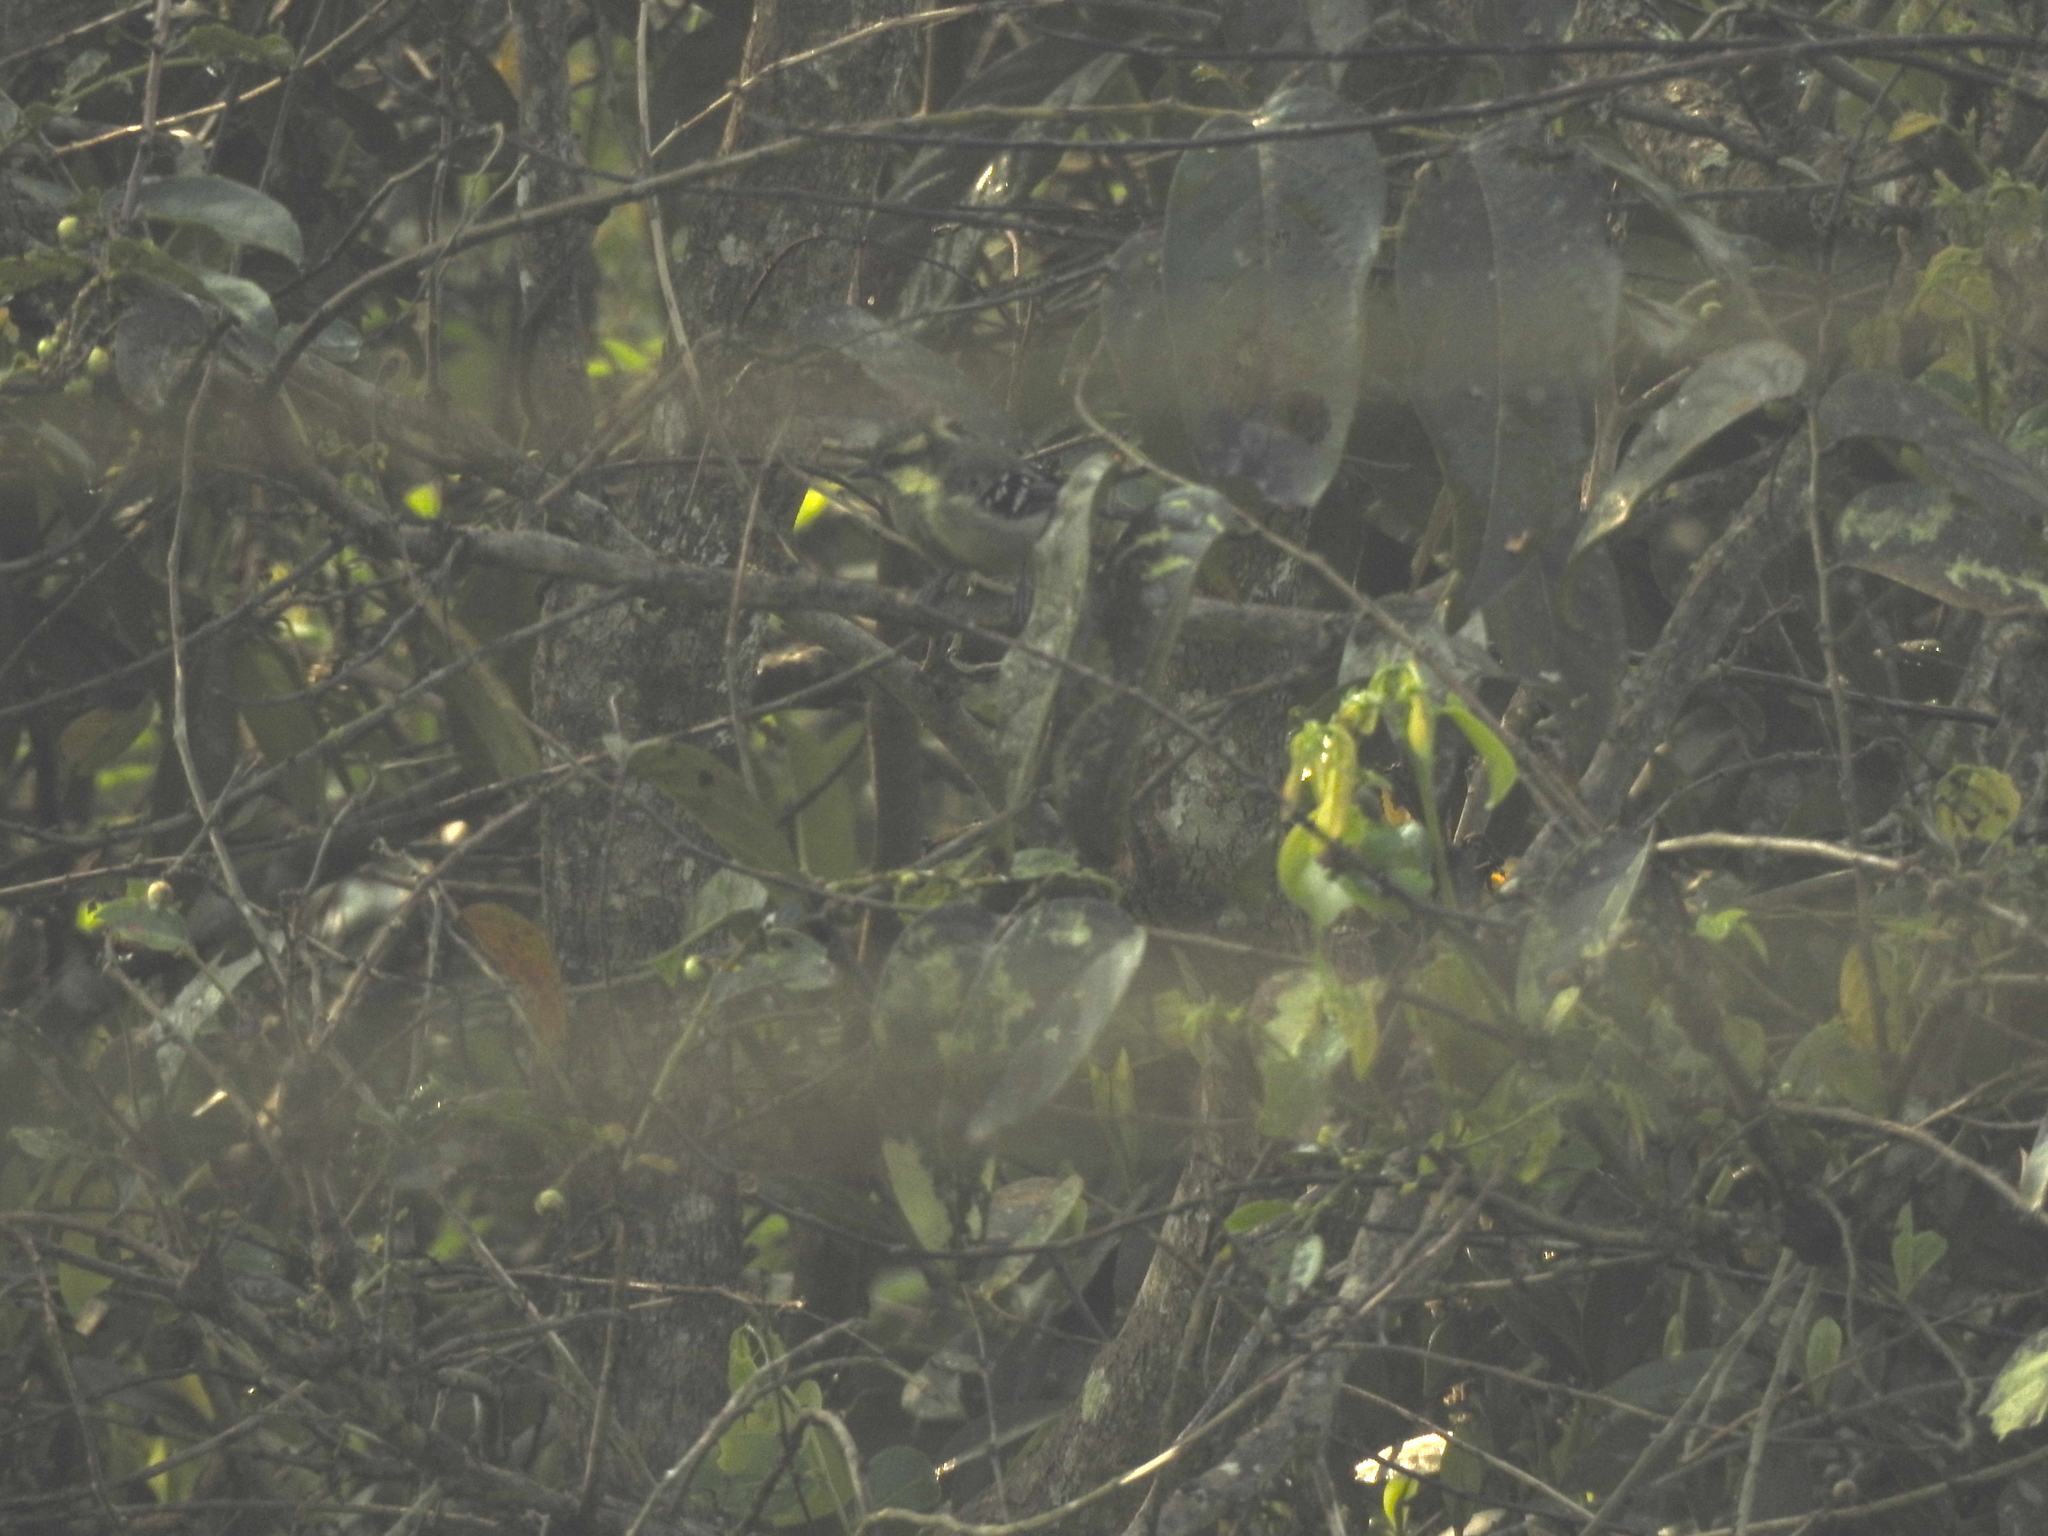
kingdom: Animalia
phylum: Chordata
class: Aves
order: Passeriformes
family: Paridae
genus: Parus
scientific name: Parus aplonotus
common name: Indian black-lored tit
